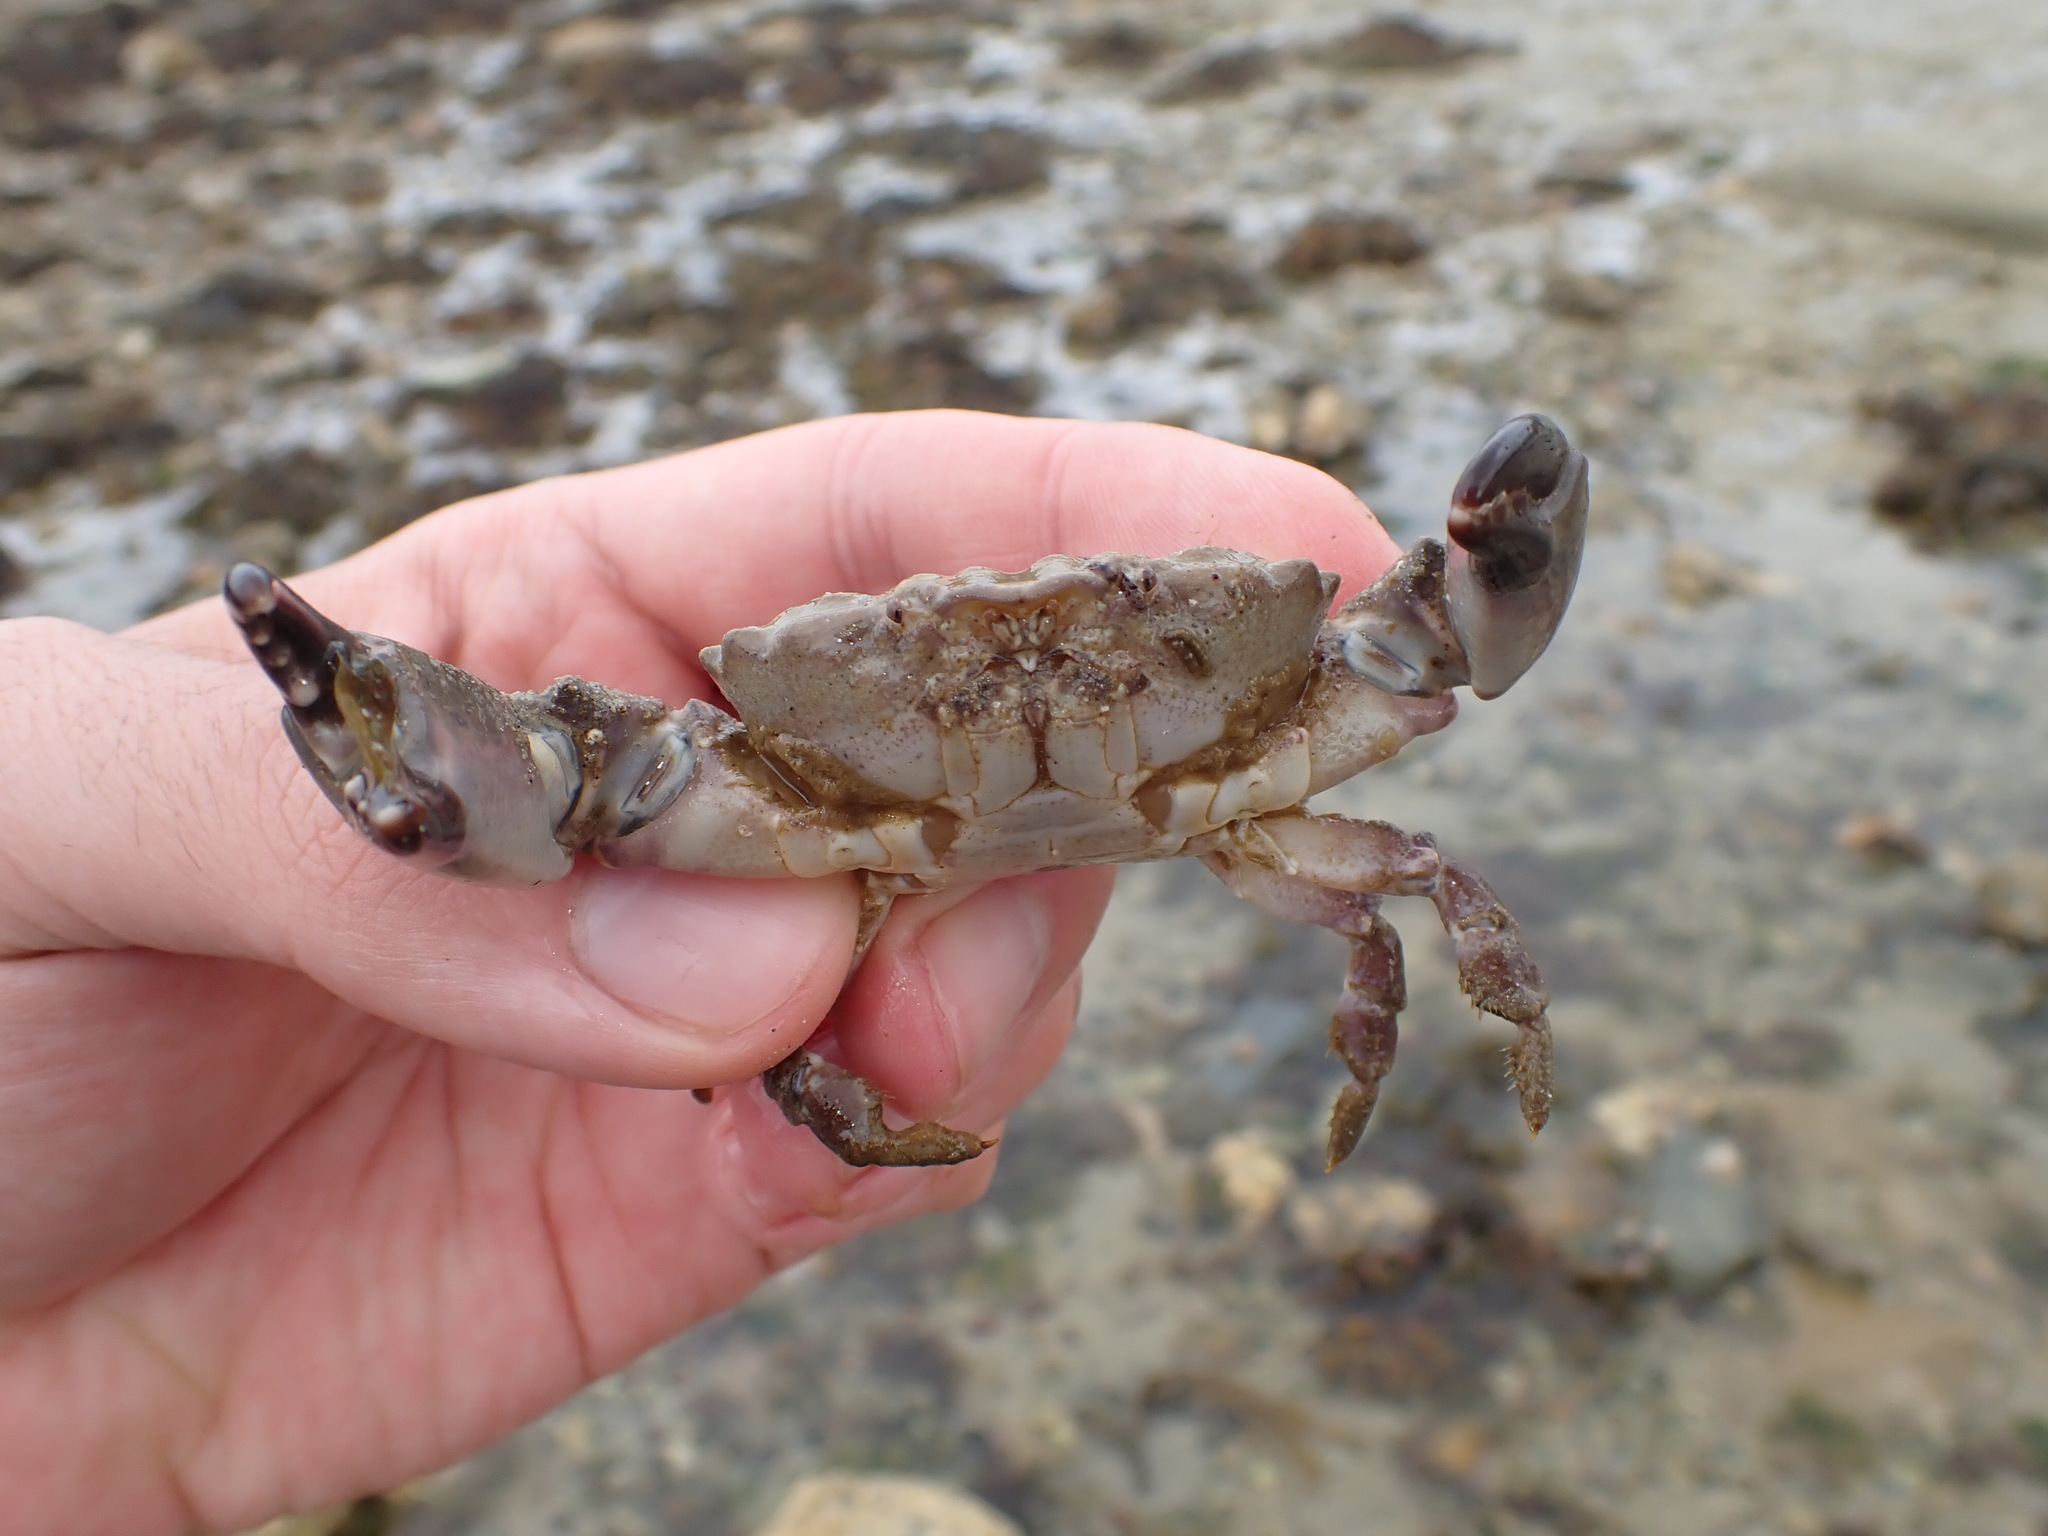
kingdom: Animalia
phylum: Arthropoda
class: Malacostraca
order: Decapoda
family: Xanthidae
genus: Xantho
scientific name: Xantho hydrophilus
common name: Montagu's crab
